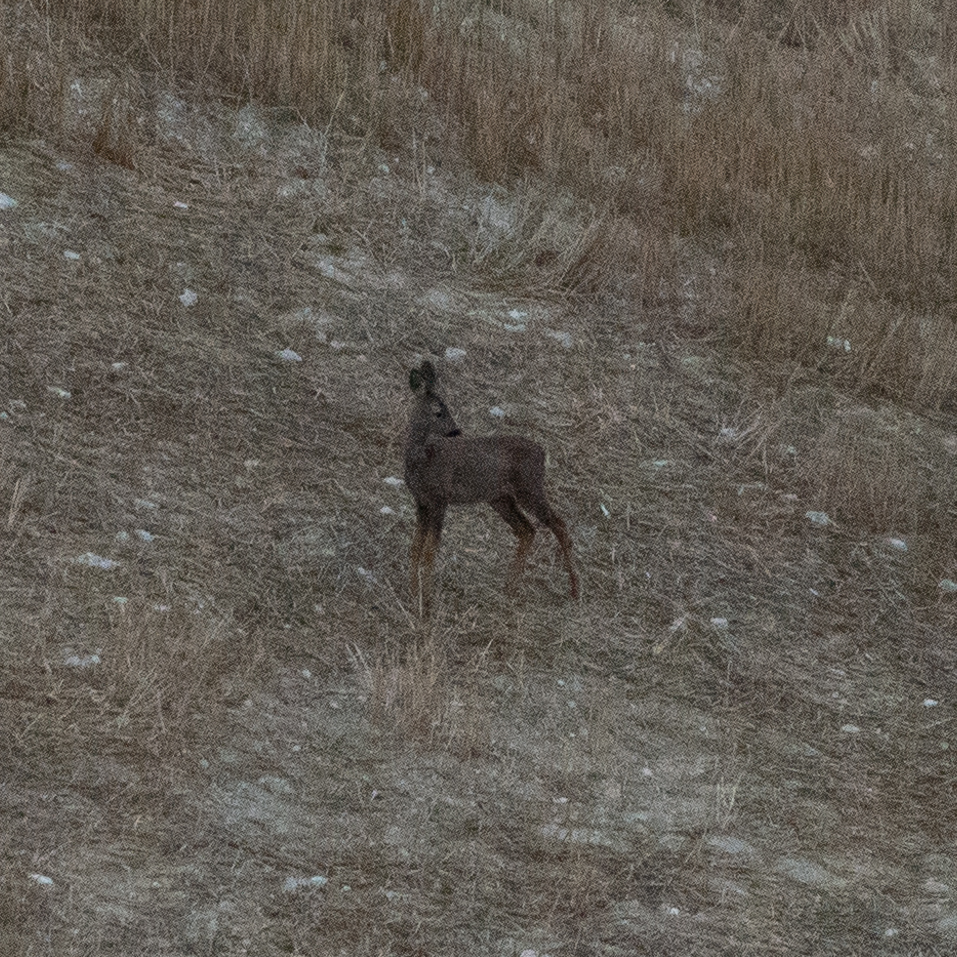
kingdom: Animalia
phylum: Chordata
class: Mammalia
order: Artiodactyla
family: Cervidae
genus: Capreolus
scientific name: Capreolus capreolus
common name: Western roe deer
